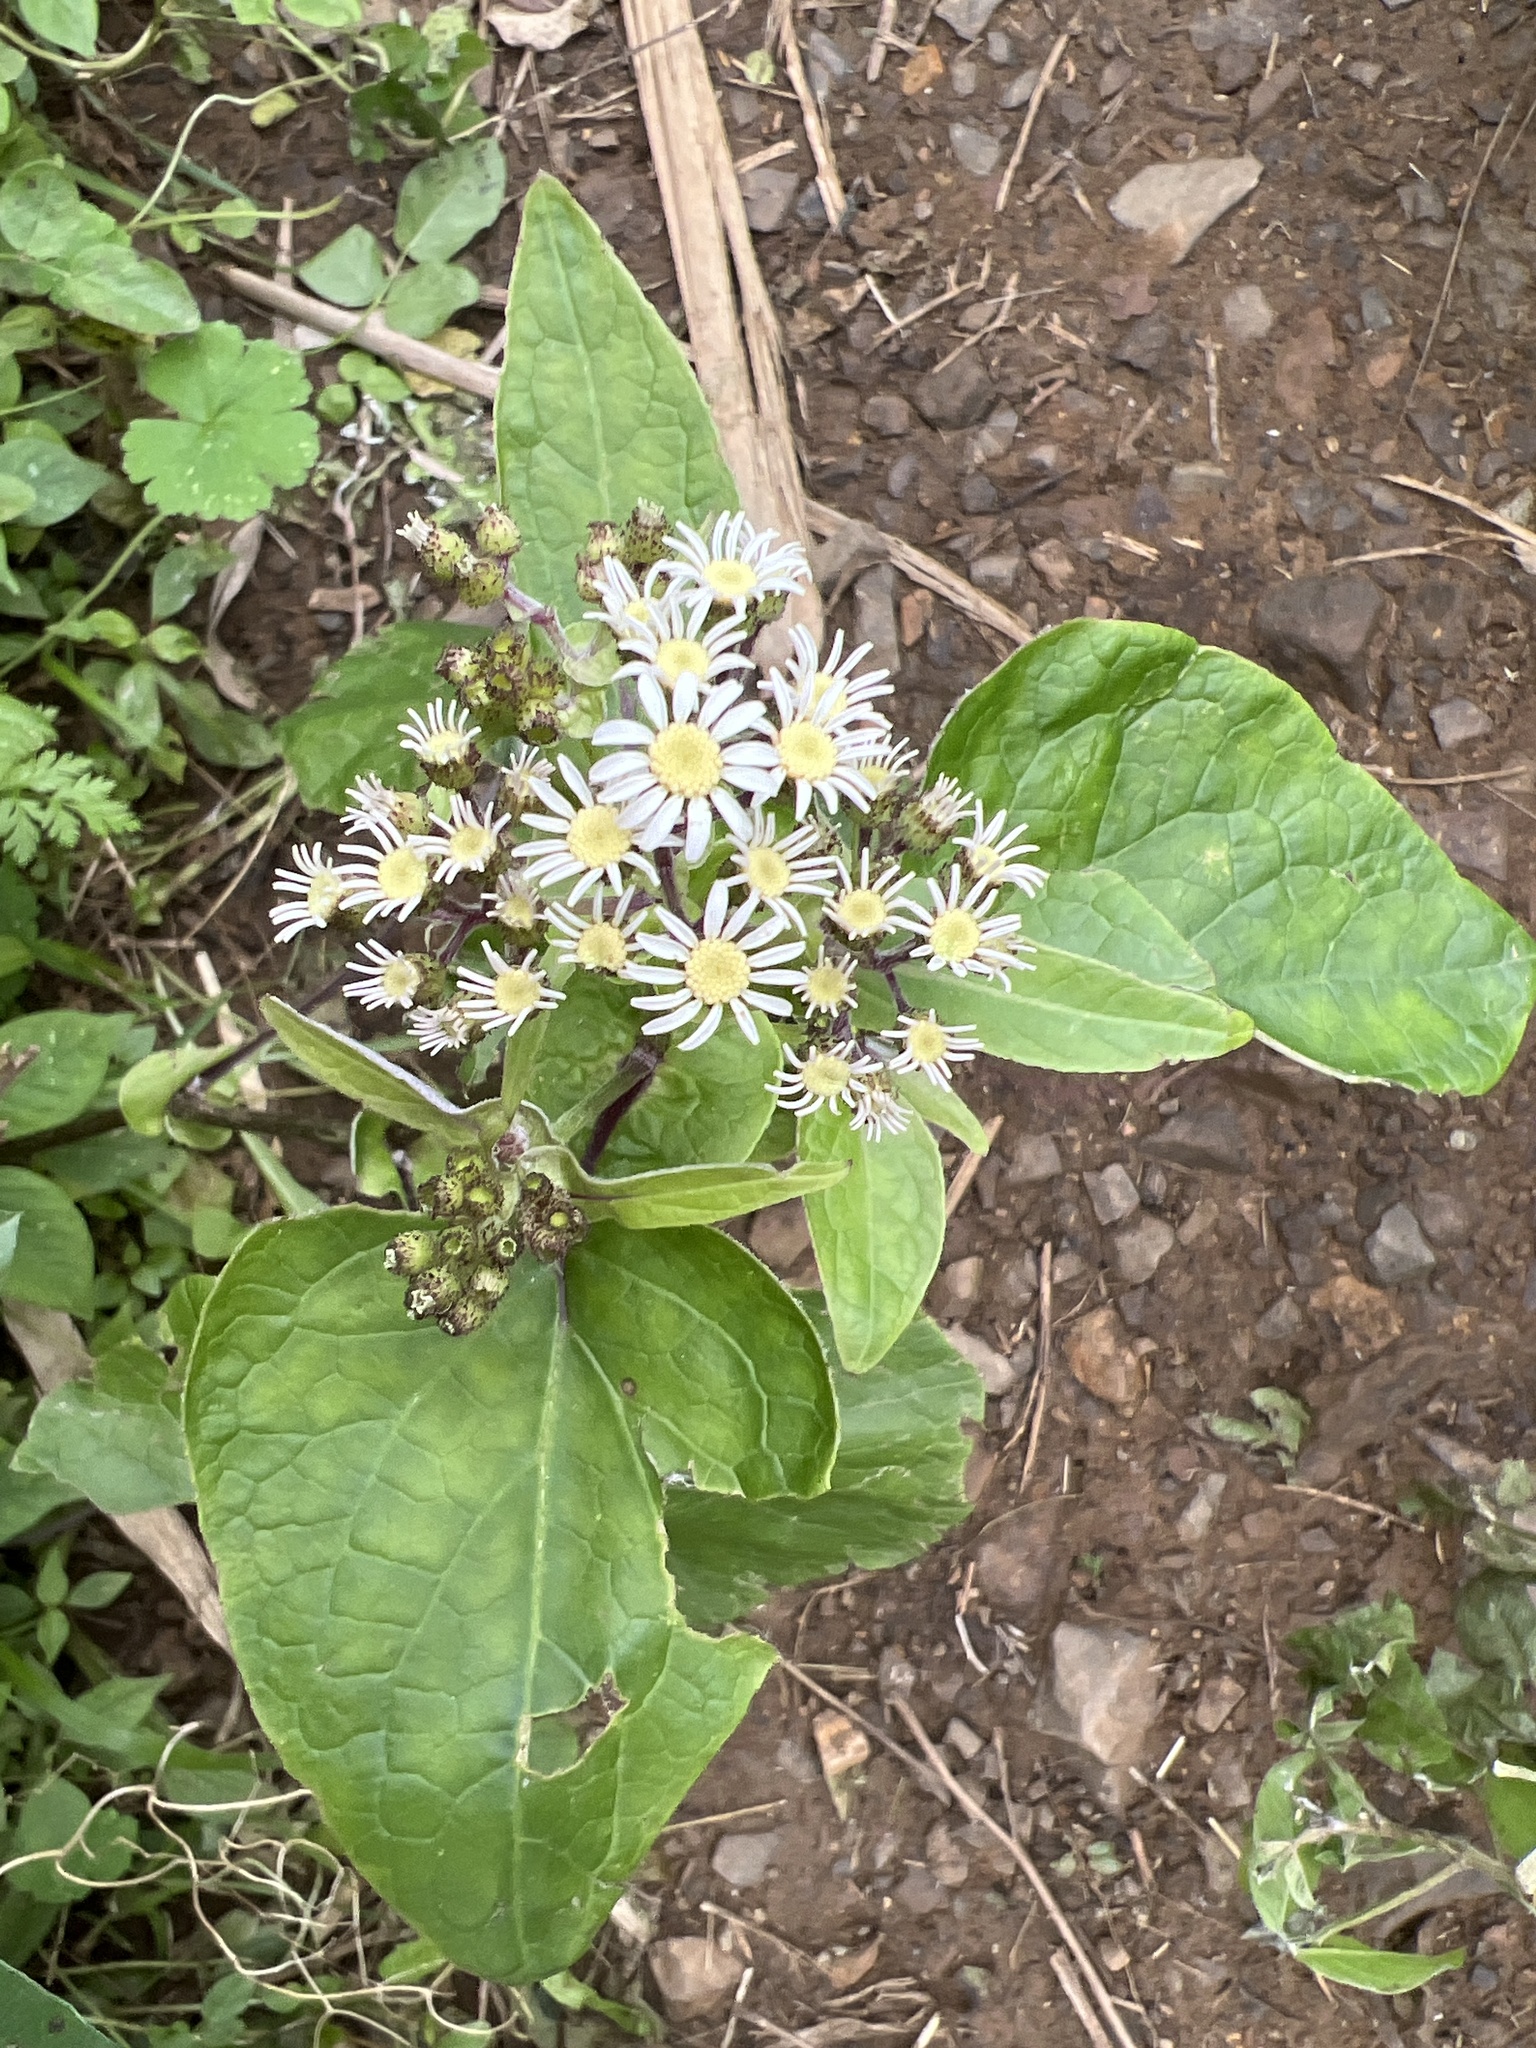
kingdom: Plantae
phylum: Tracheophyta
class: Magnoliopsida
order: Asterales
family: Asteraceae
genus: Pericallis
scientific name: Pericallis steetzii
